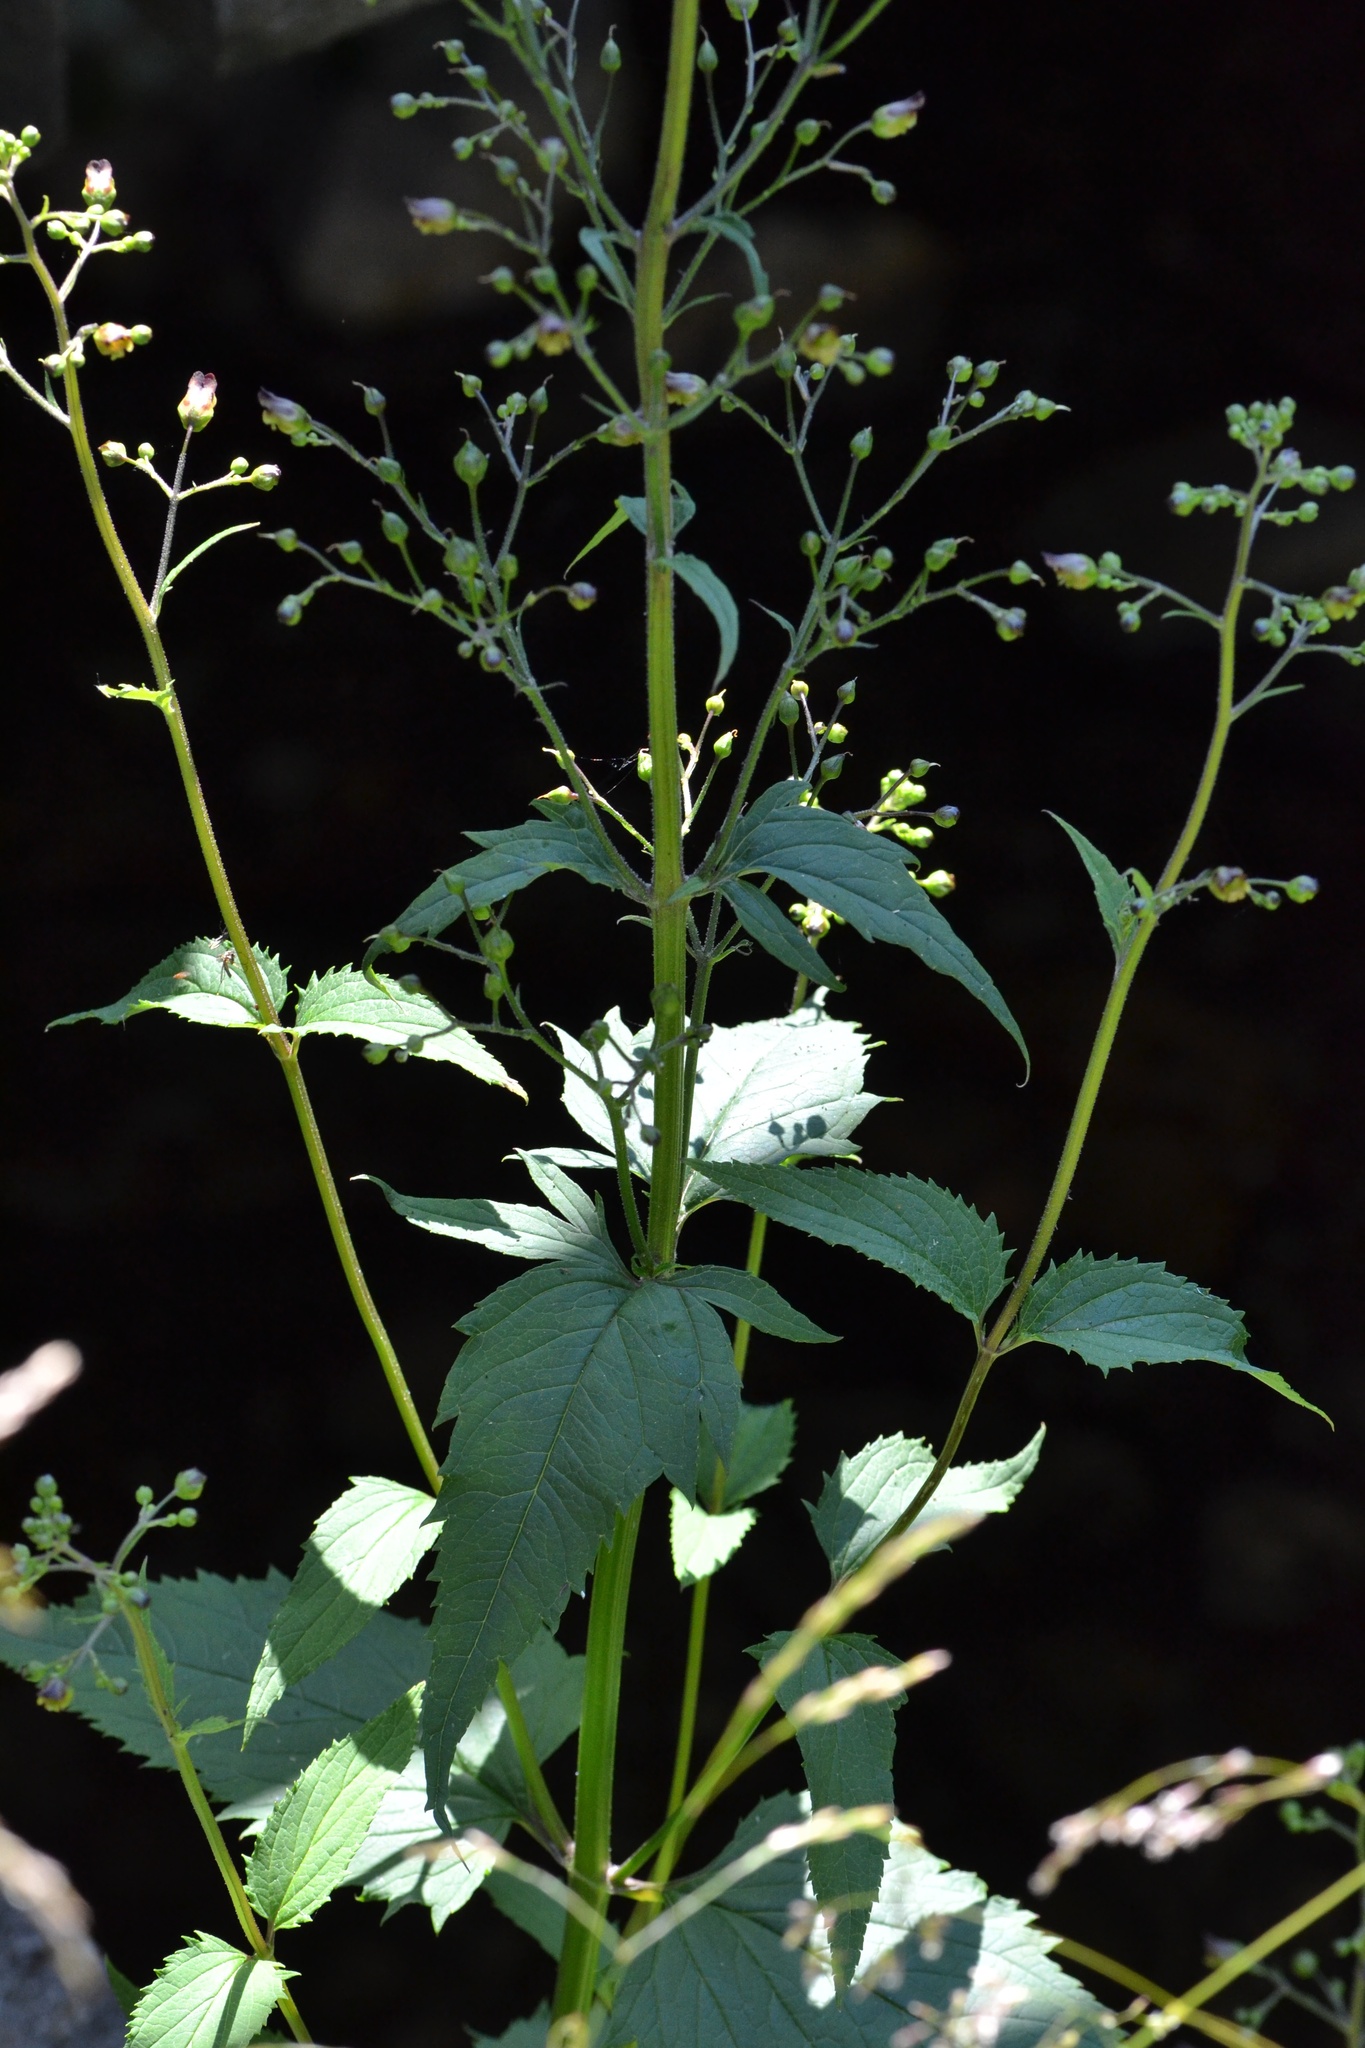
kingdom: Plantae
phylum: Tracheophyta
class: Magnoliopsida
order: Lamiales
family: Scrophulariaceae
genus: Scrophularia
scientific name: Scrophularia nodosa
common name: Common figwort
